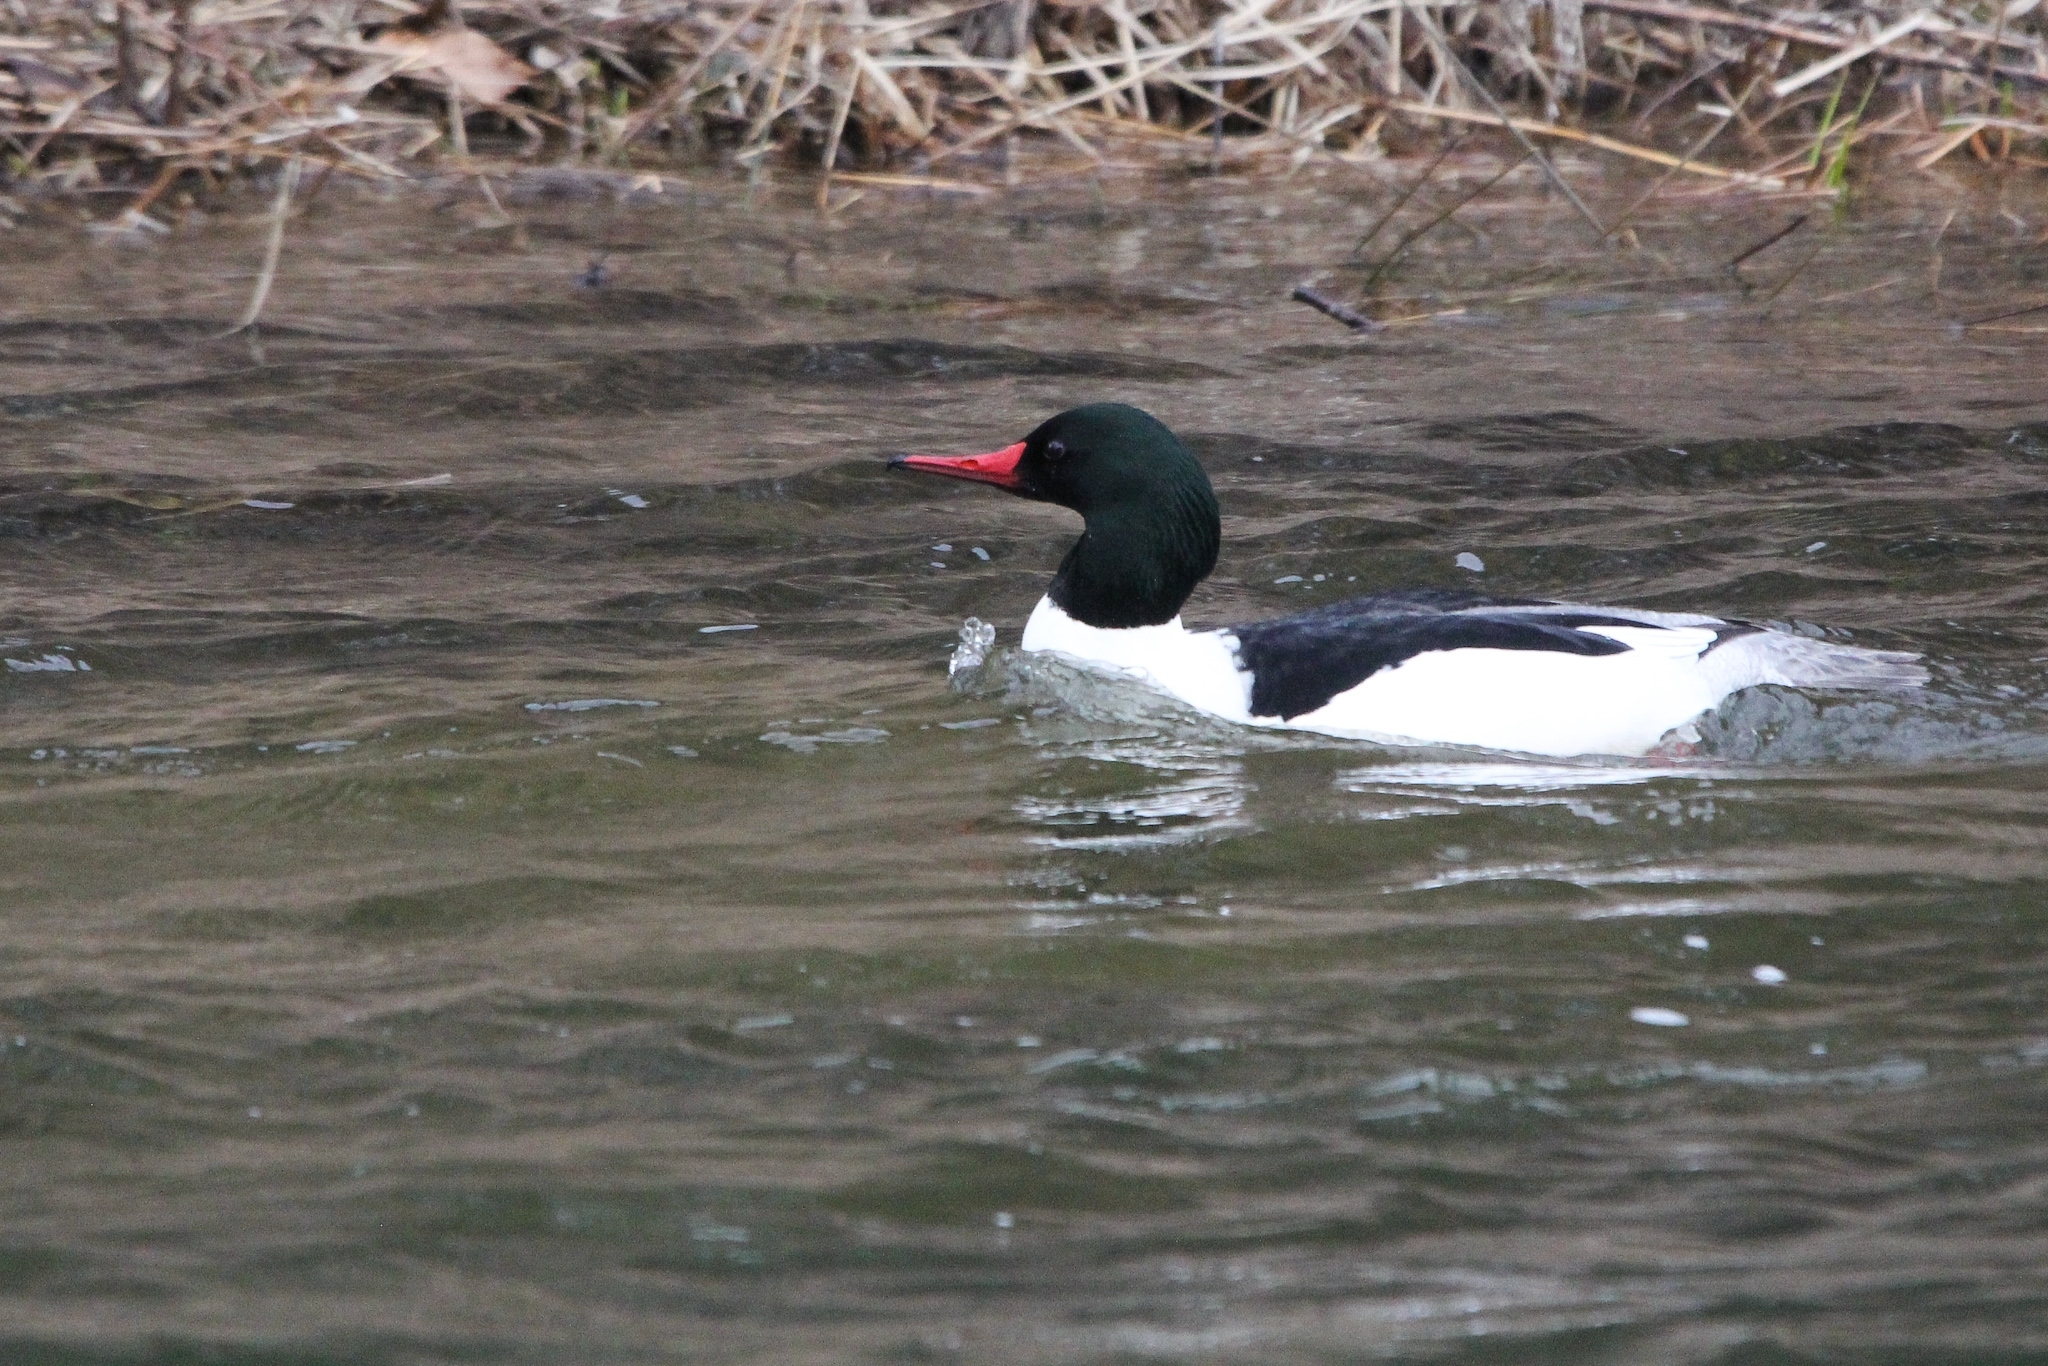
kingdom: Animalia
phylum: Chordata
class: Aves
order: Anseriformes
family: Anatidae
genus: Mergus
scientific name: Mergus merganser
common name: Common merganser
